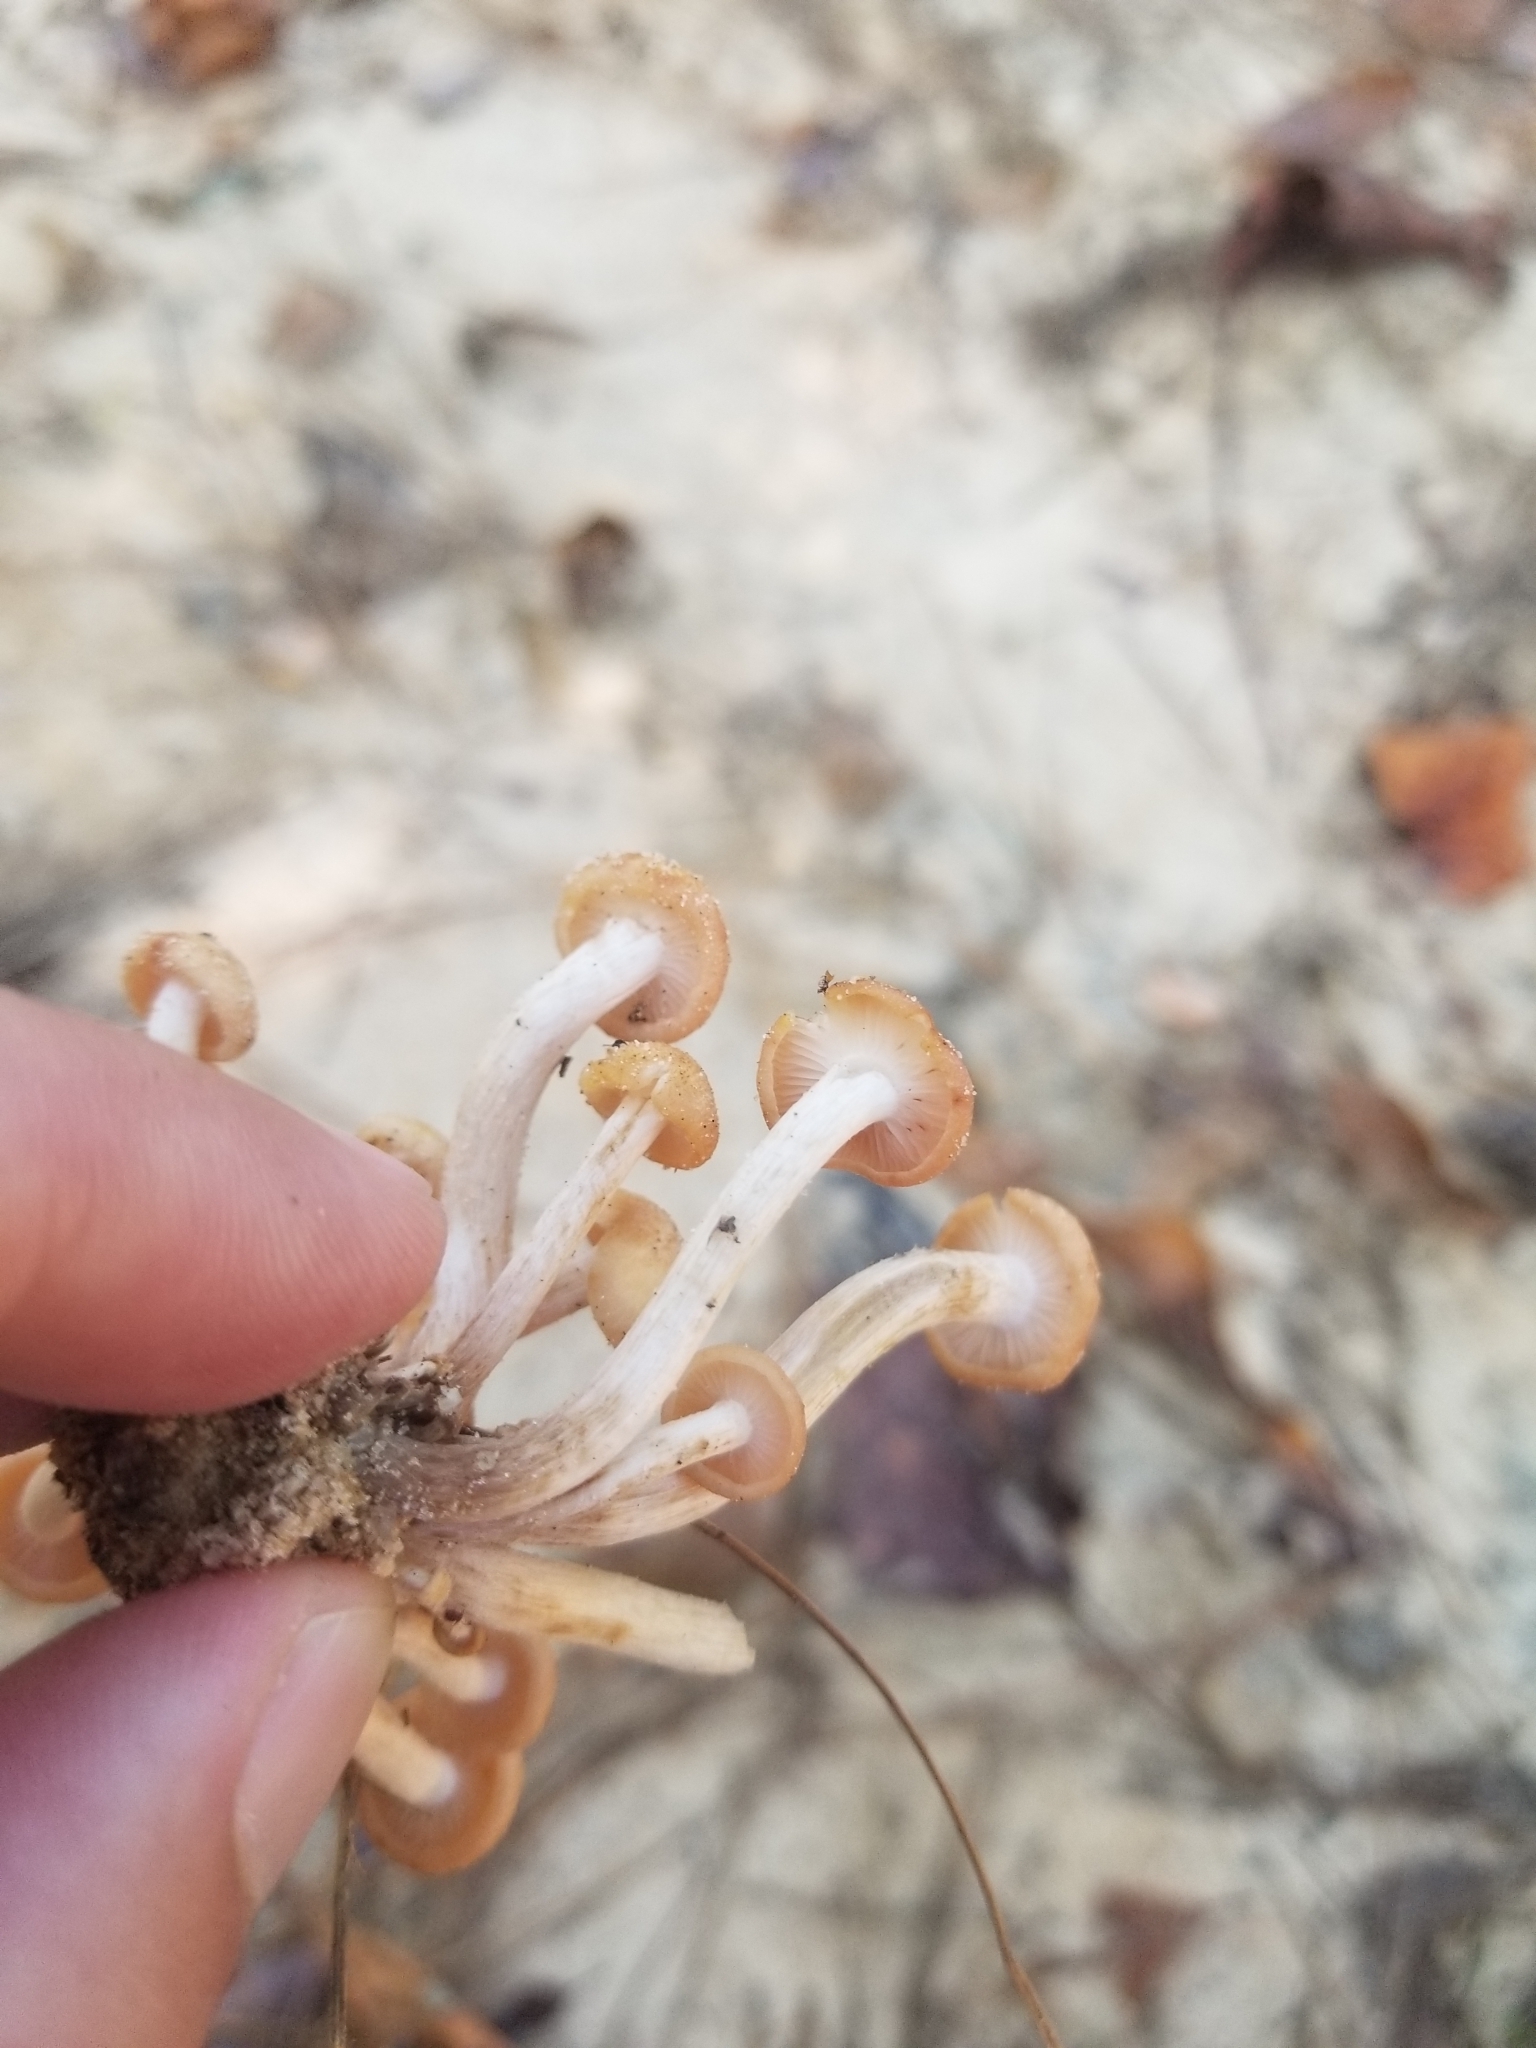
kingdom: Fungi
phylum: Basidiomycota
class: Agaricomycetes
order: Agaricales
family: Physalacriaceae
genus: Desarmillaria
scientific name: Desarmillaria caespitosa
